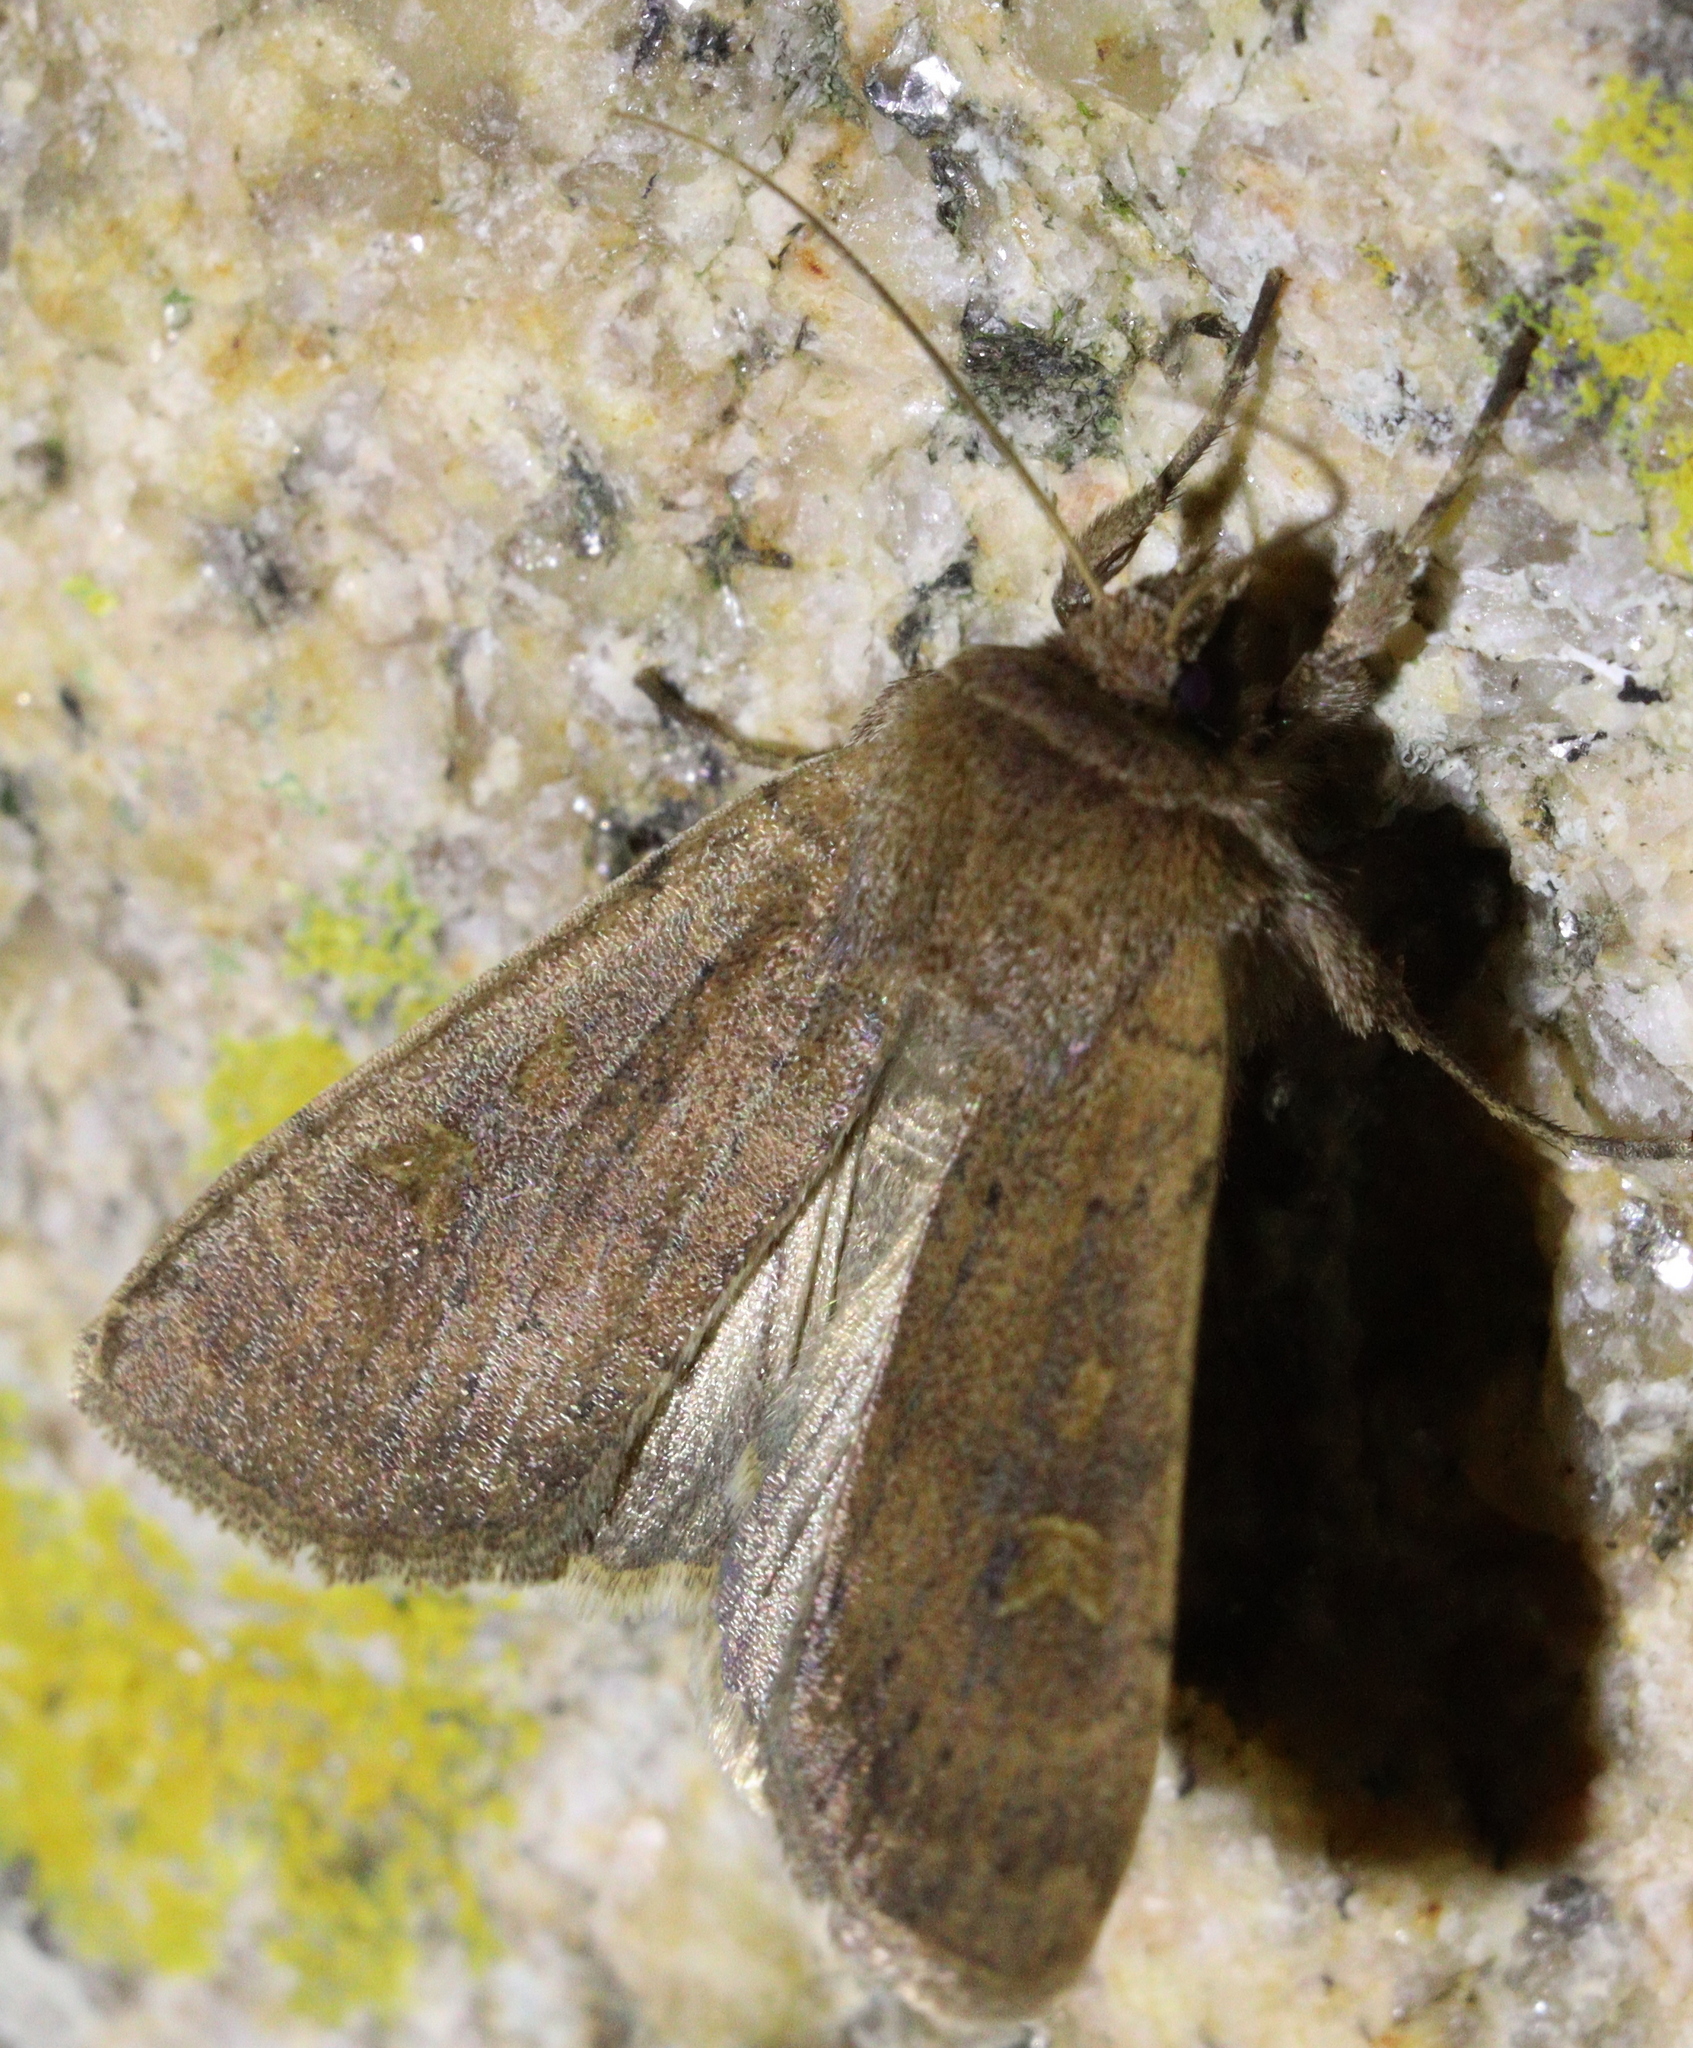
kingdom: Animalia
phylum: Arthropoda
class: Insecta
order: Lepidoptera
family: Noctuidae
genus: Xestia
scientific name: Xestia xanthographa
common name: Square-spot rustic
